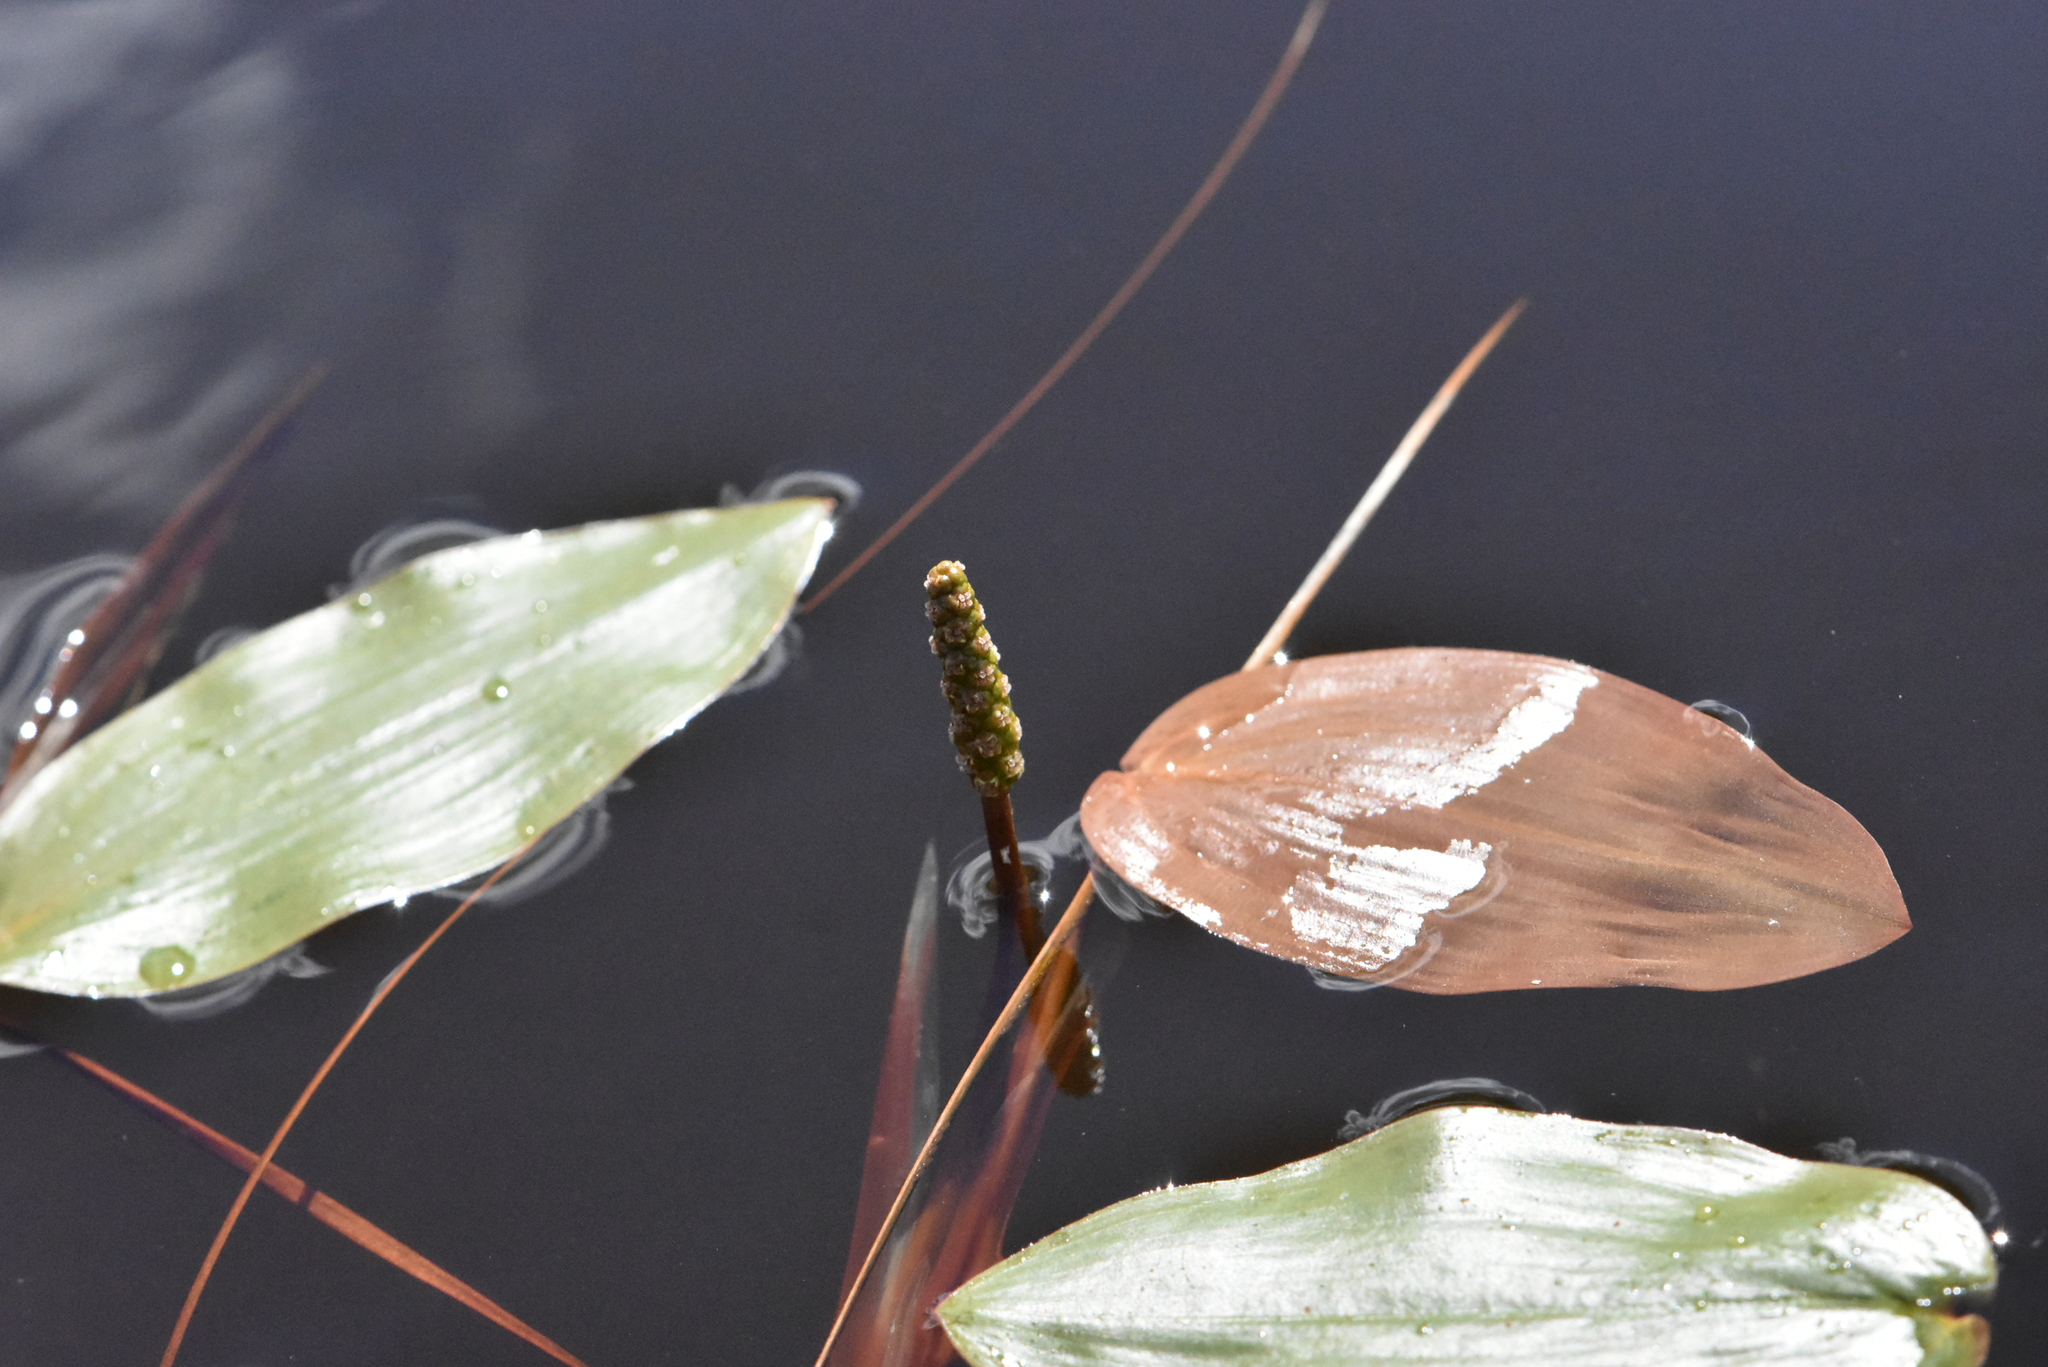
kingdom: Plantae
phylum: Tracheophyta
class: Liliopsida
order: Alismatales
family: Potamogetonaceae
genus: Potamogeton
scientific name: Potamogeton natans
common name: Broad-leaved pondweed
